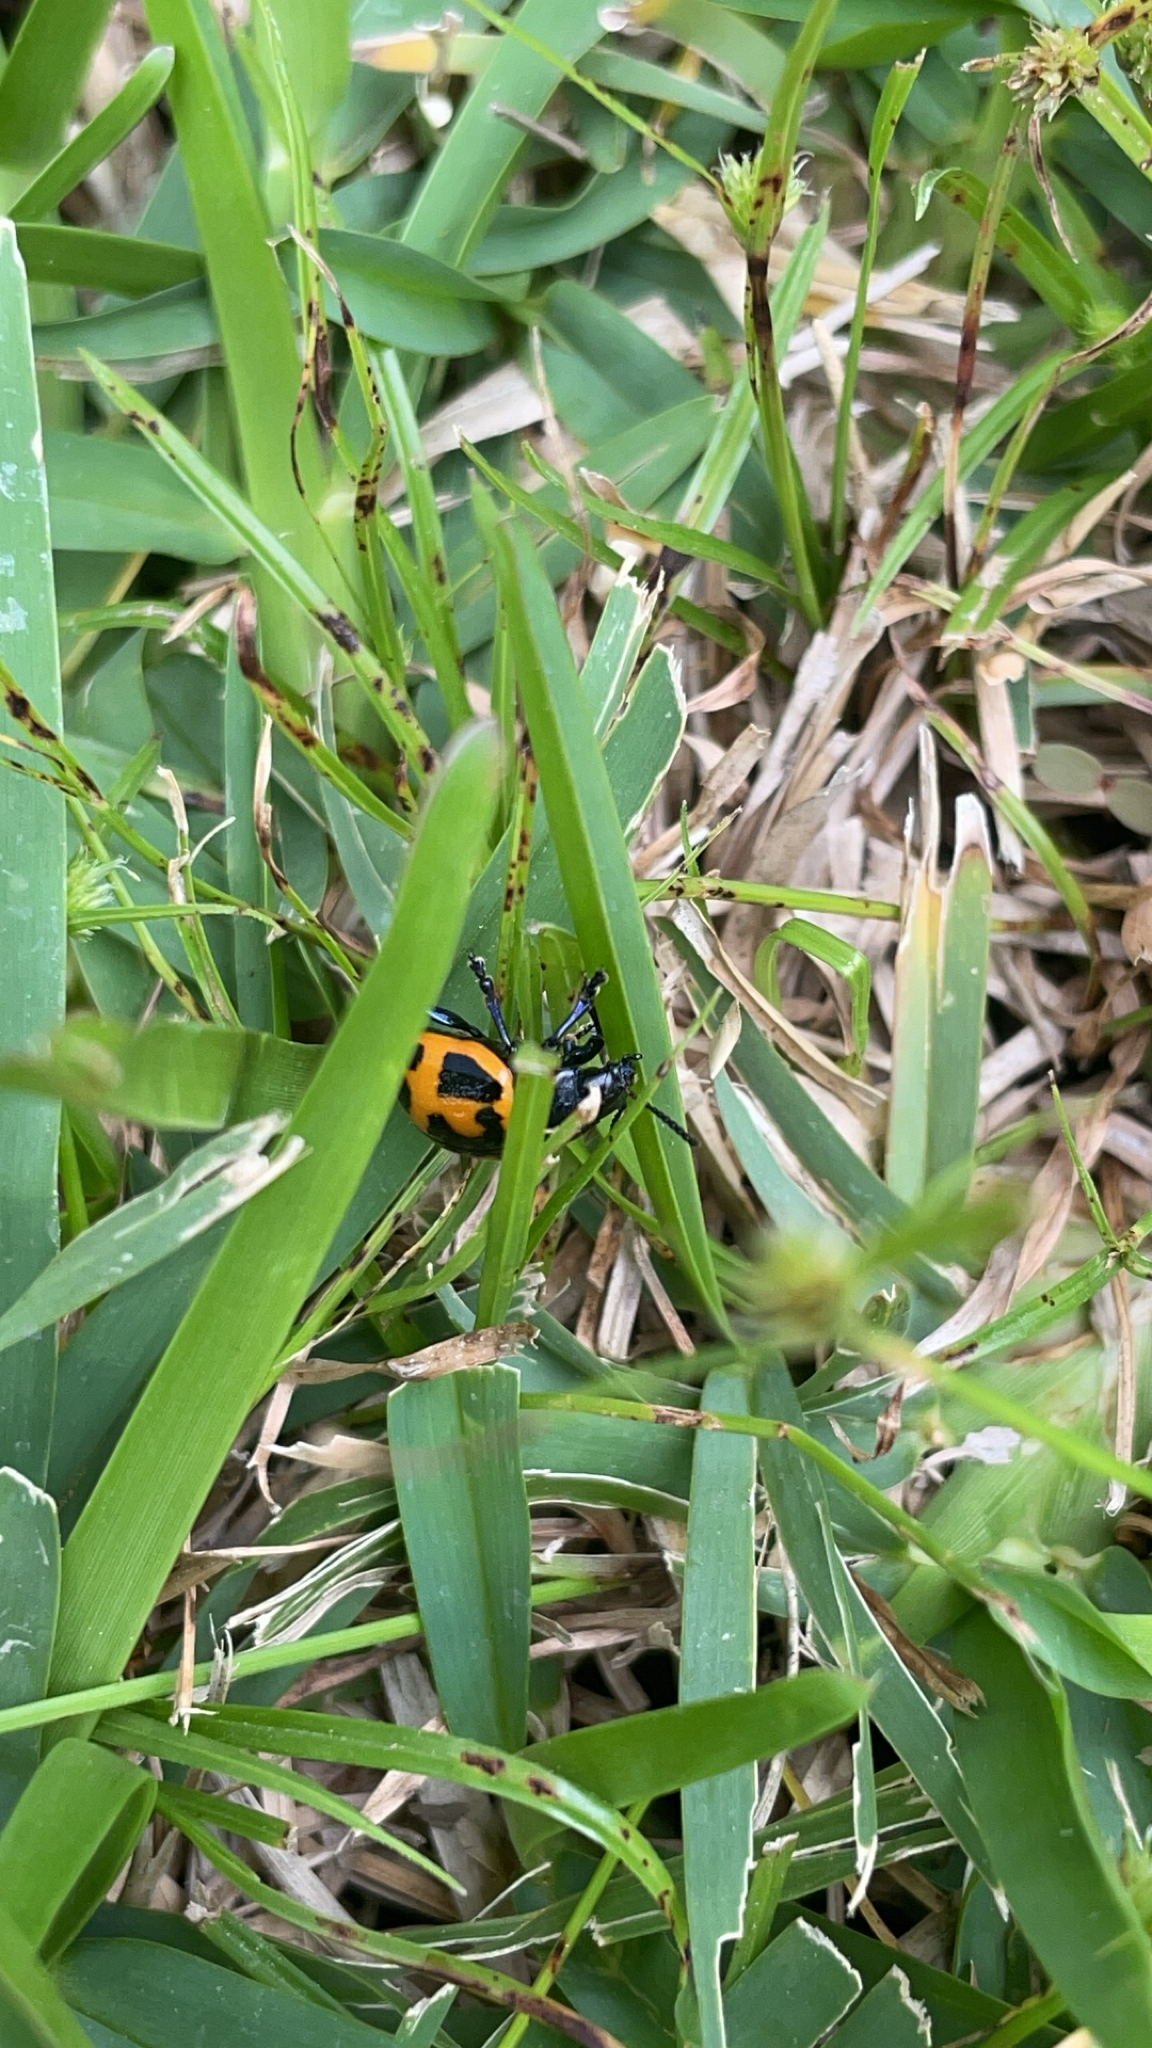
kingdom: Animalia
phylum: Arthropoda
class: Insecta
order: Coleoptera
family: Chrysomelidae
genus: Labidomera
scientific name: Labidomera clivicollis
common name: Swamp milkweed leaf beetle
